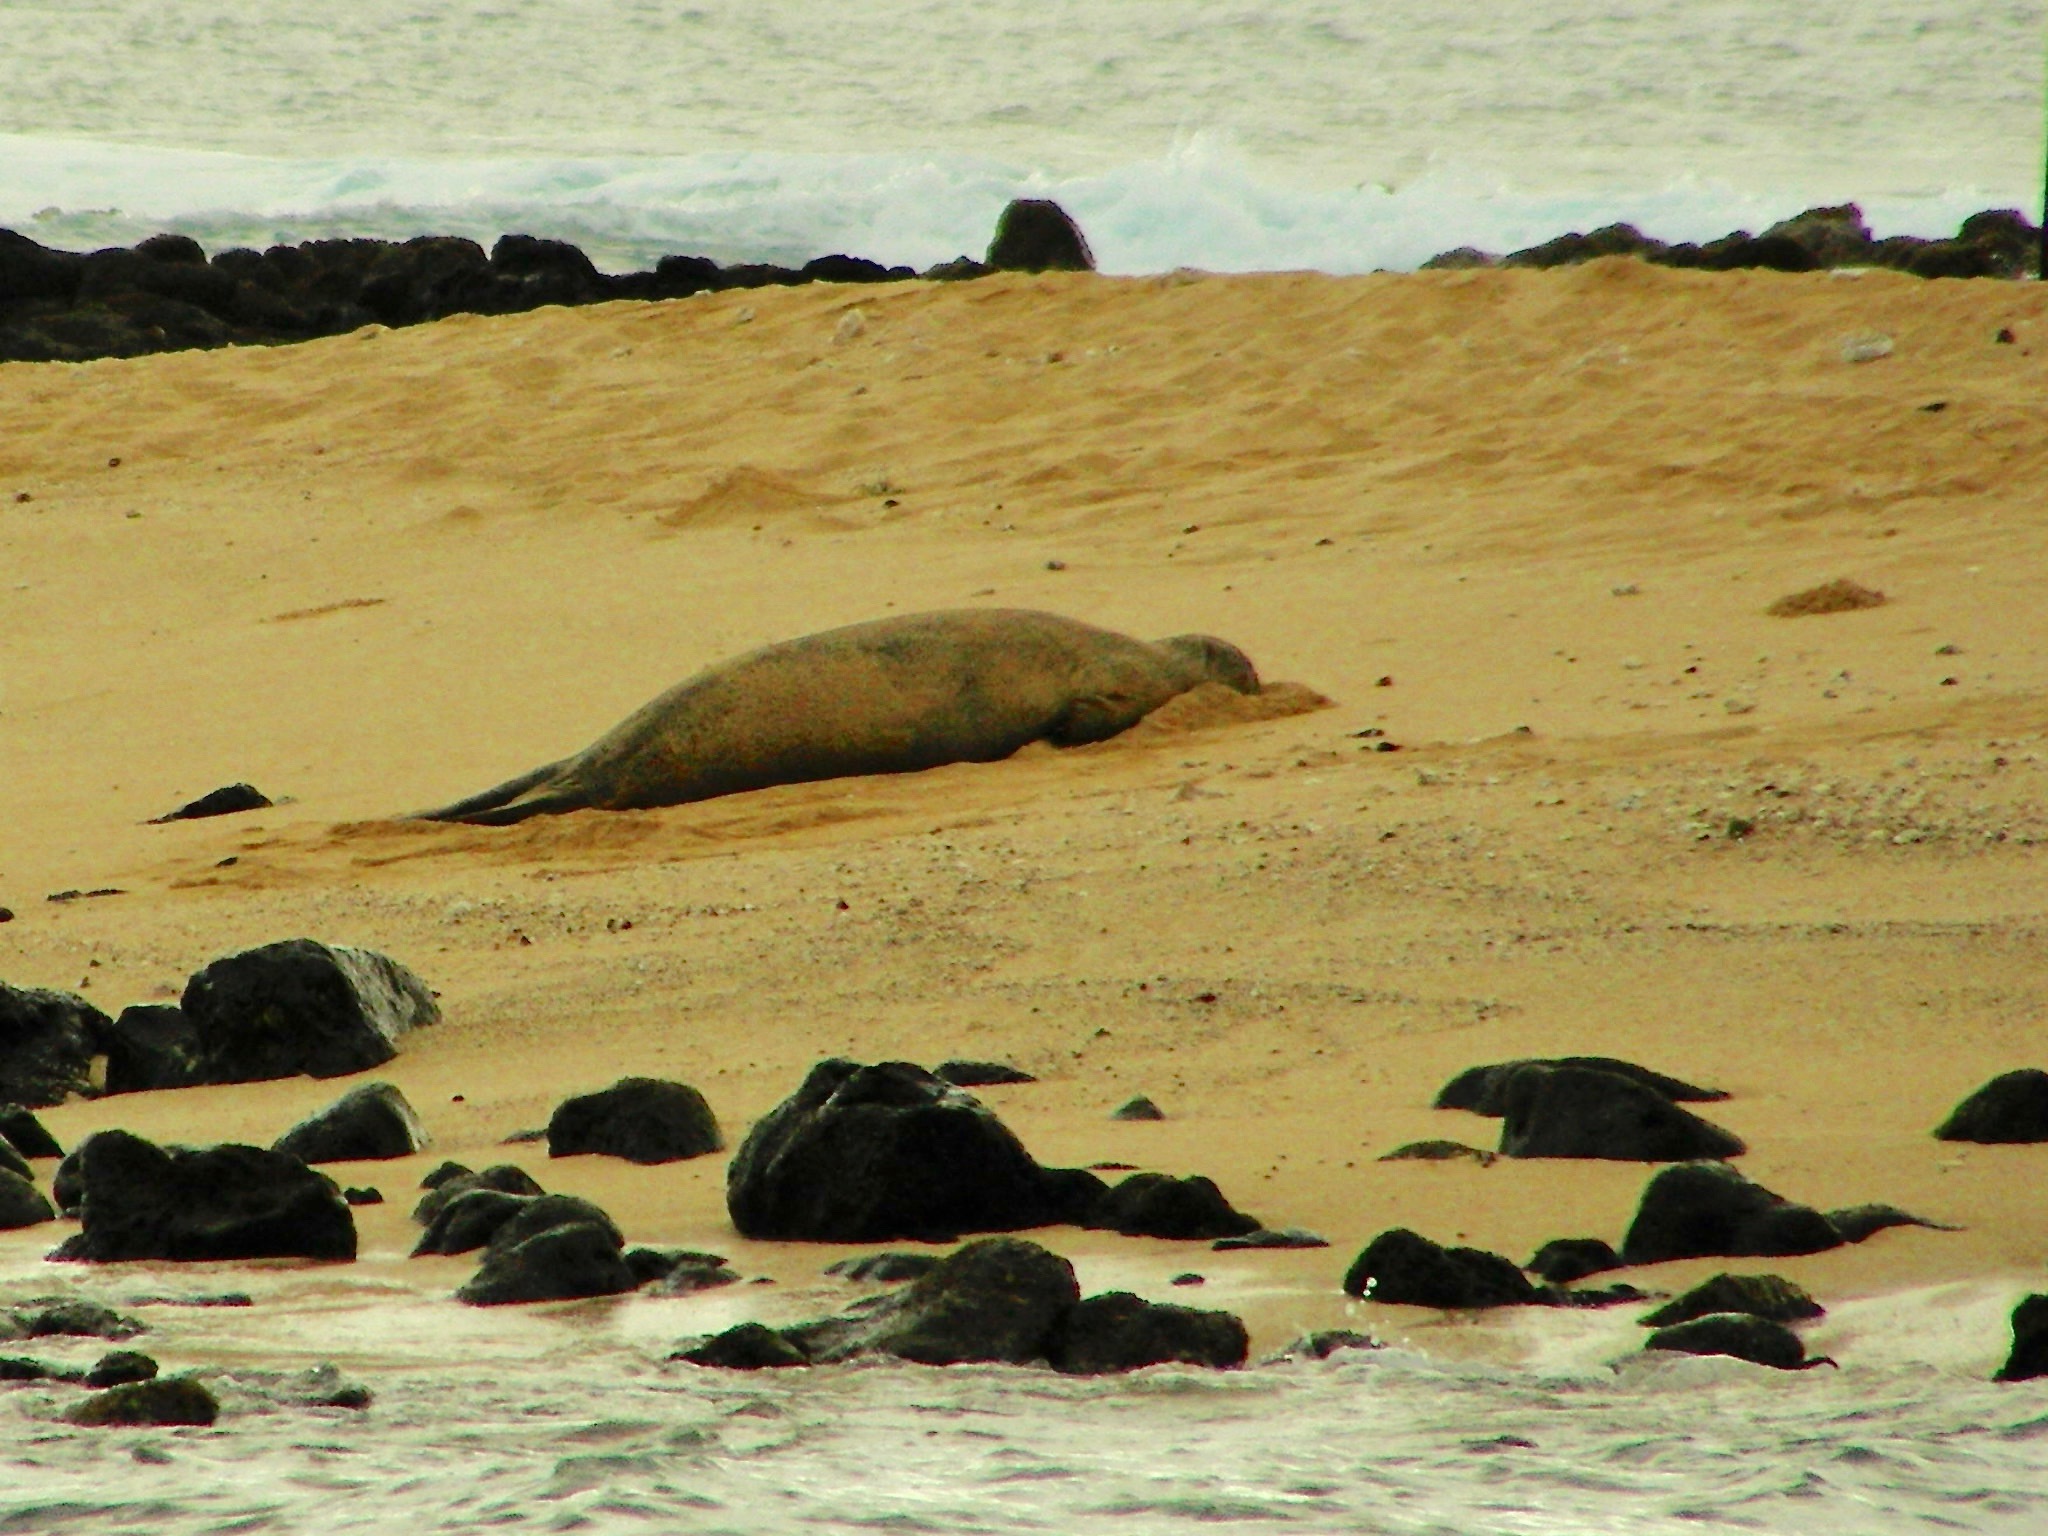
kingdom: Animalia
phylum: Chordata
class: Mammalia
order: Carnivora
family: Phocidae
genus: Neomonachus
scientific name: Neomonachus schauinslandi
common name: Hawaiian monk seal
